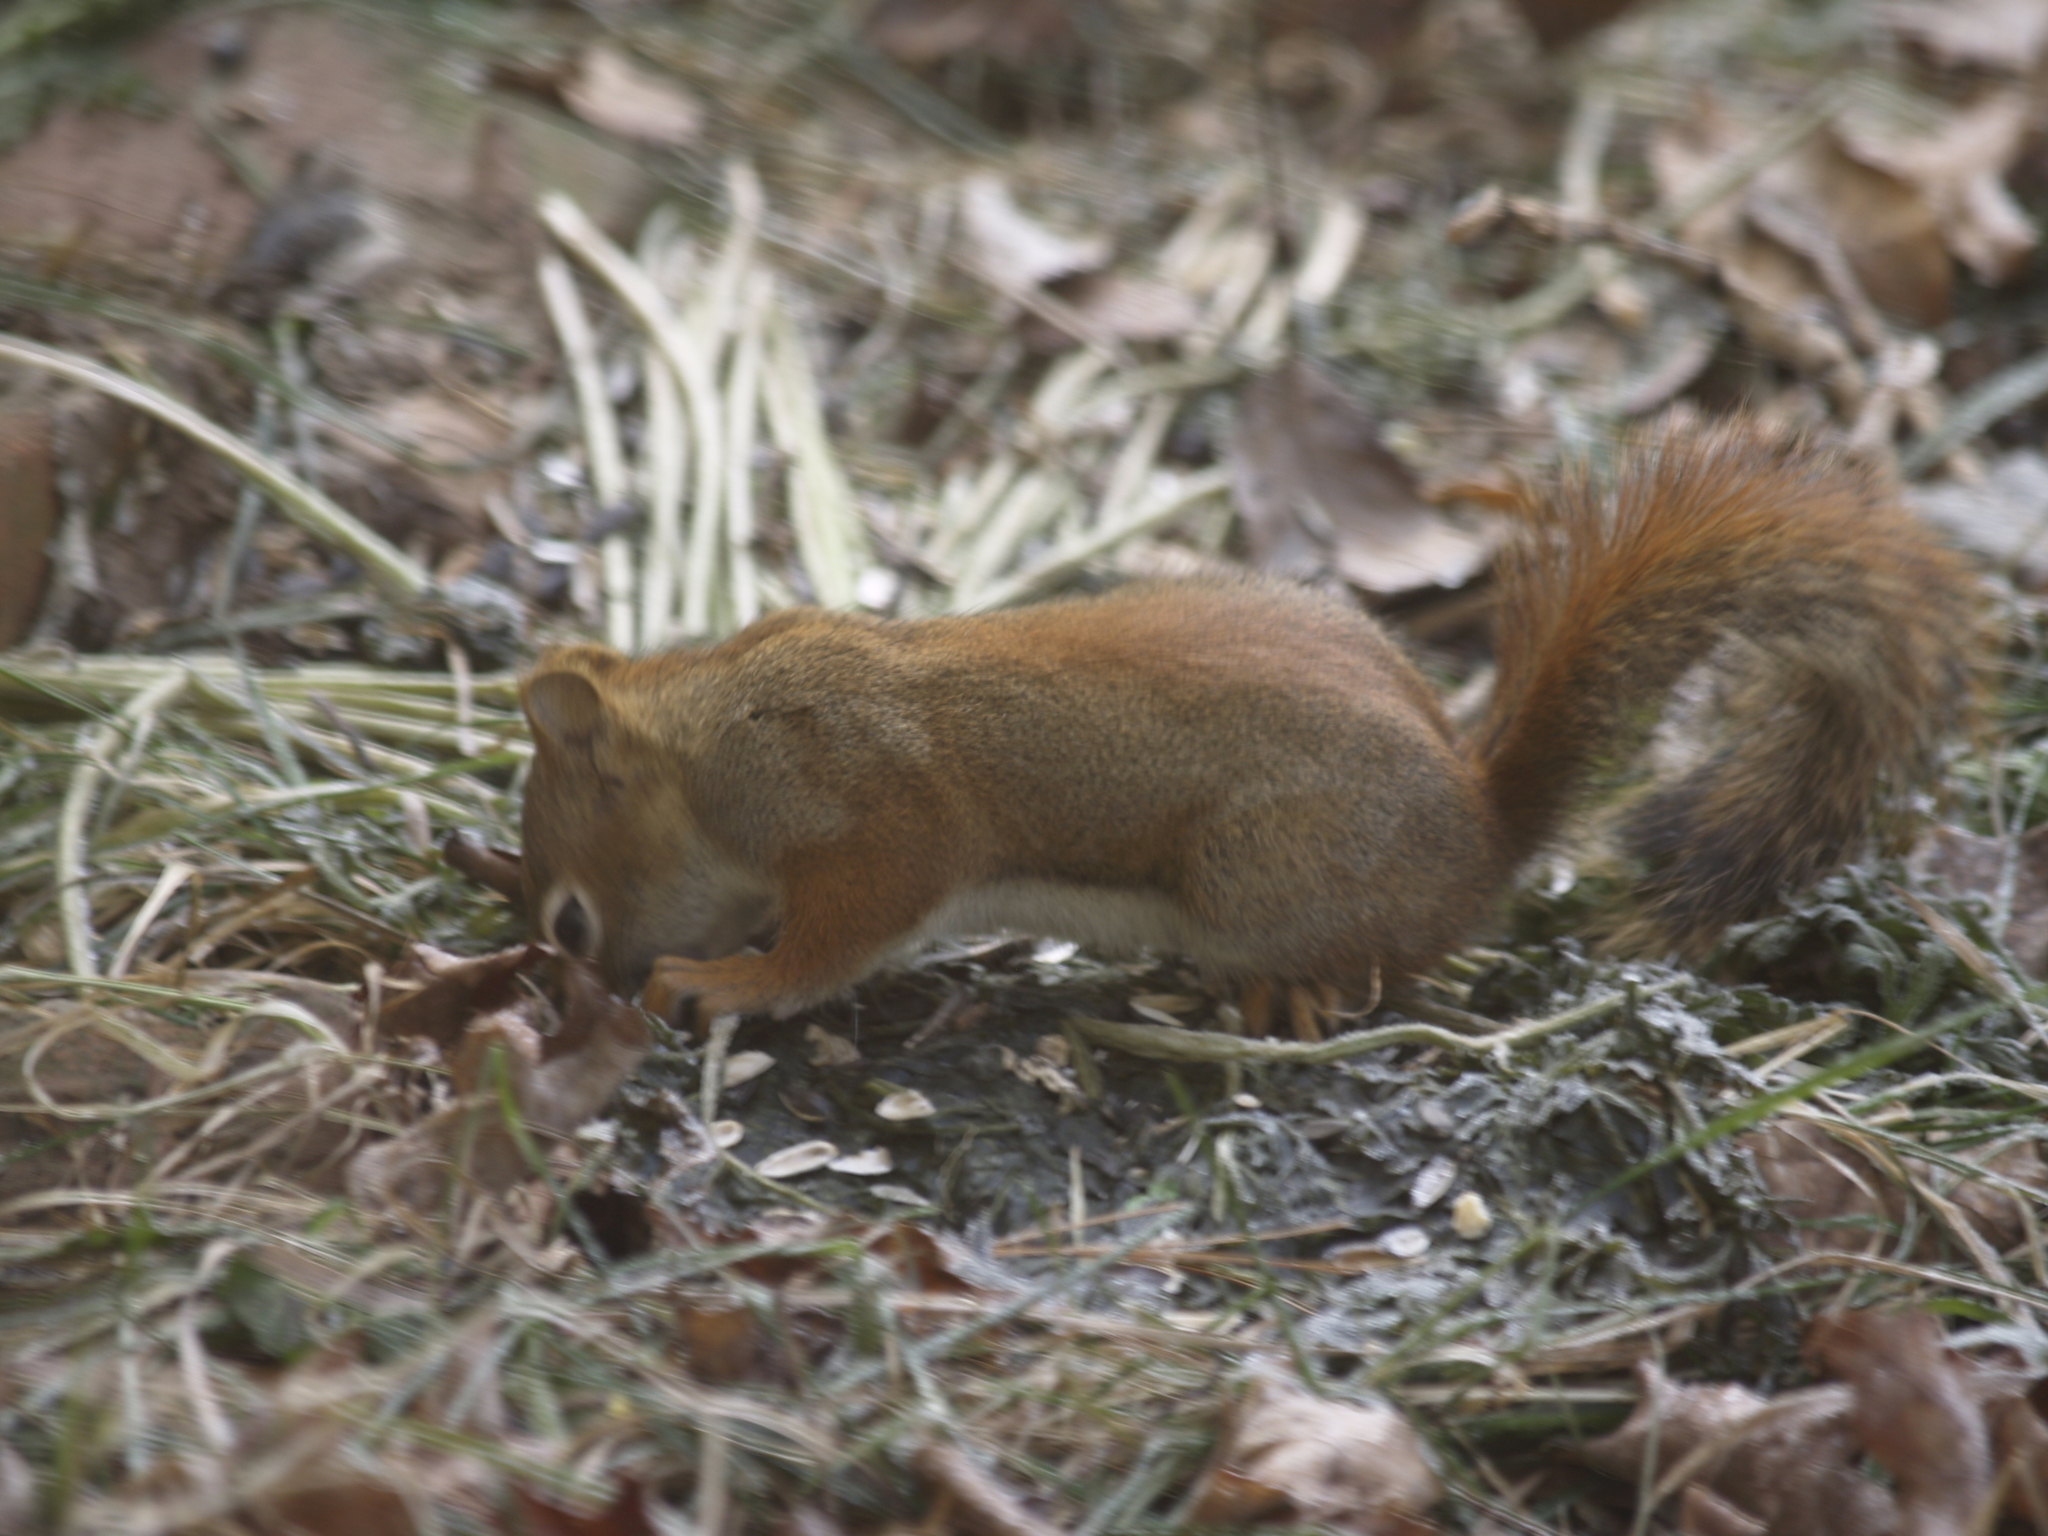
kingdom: Animalia
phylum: Chordata
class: Mammalia
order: Rodentia
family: Sciuridae
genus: Tamiasciurus
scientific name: Tamiasciurus hudsonicus
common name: Red squirrel
